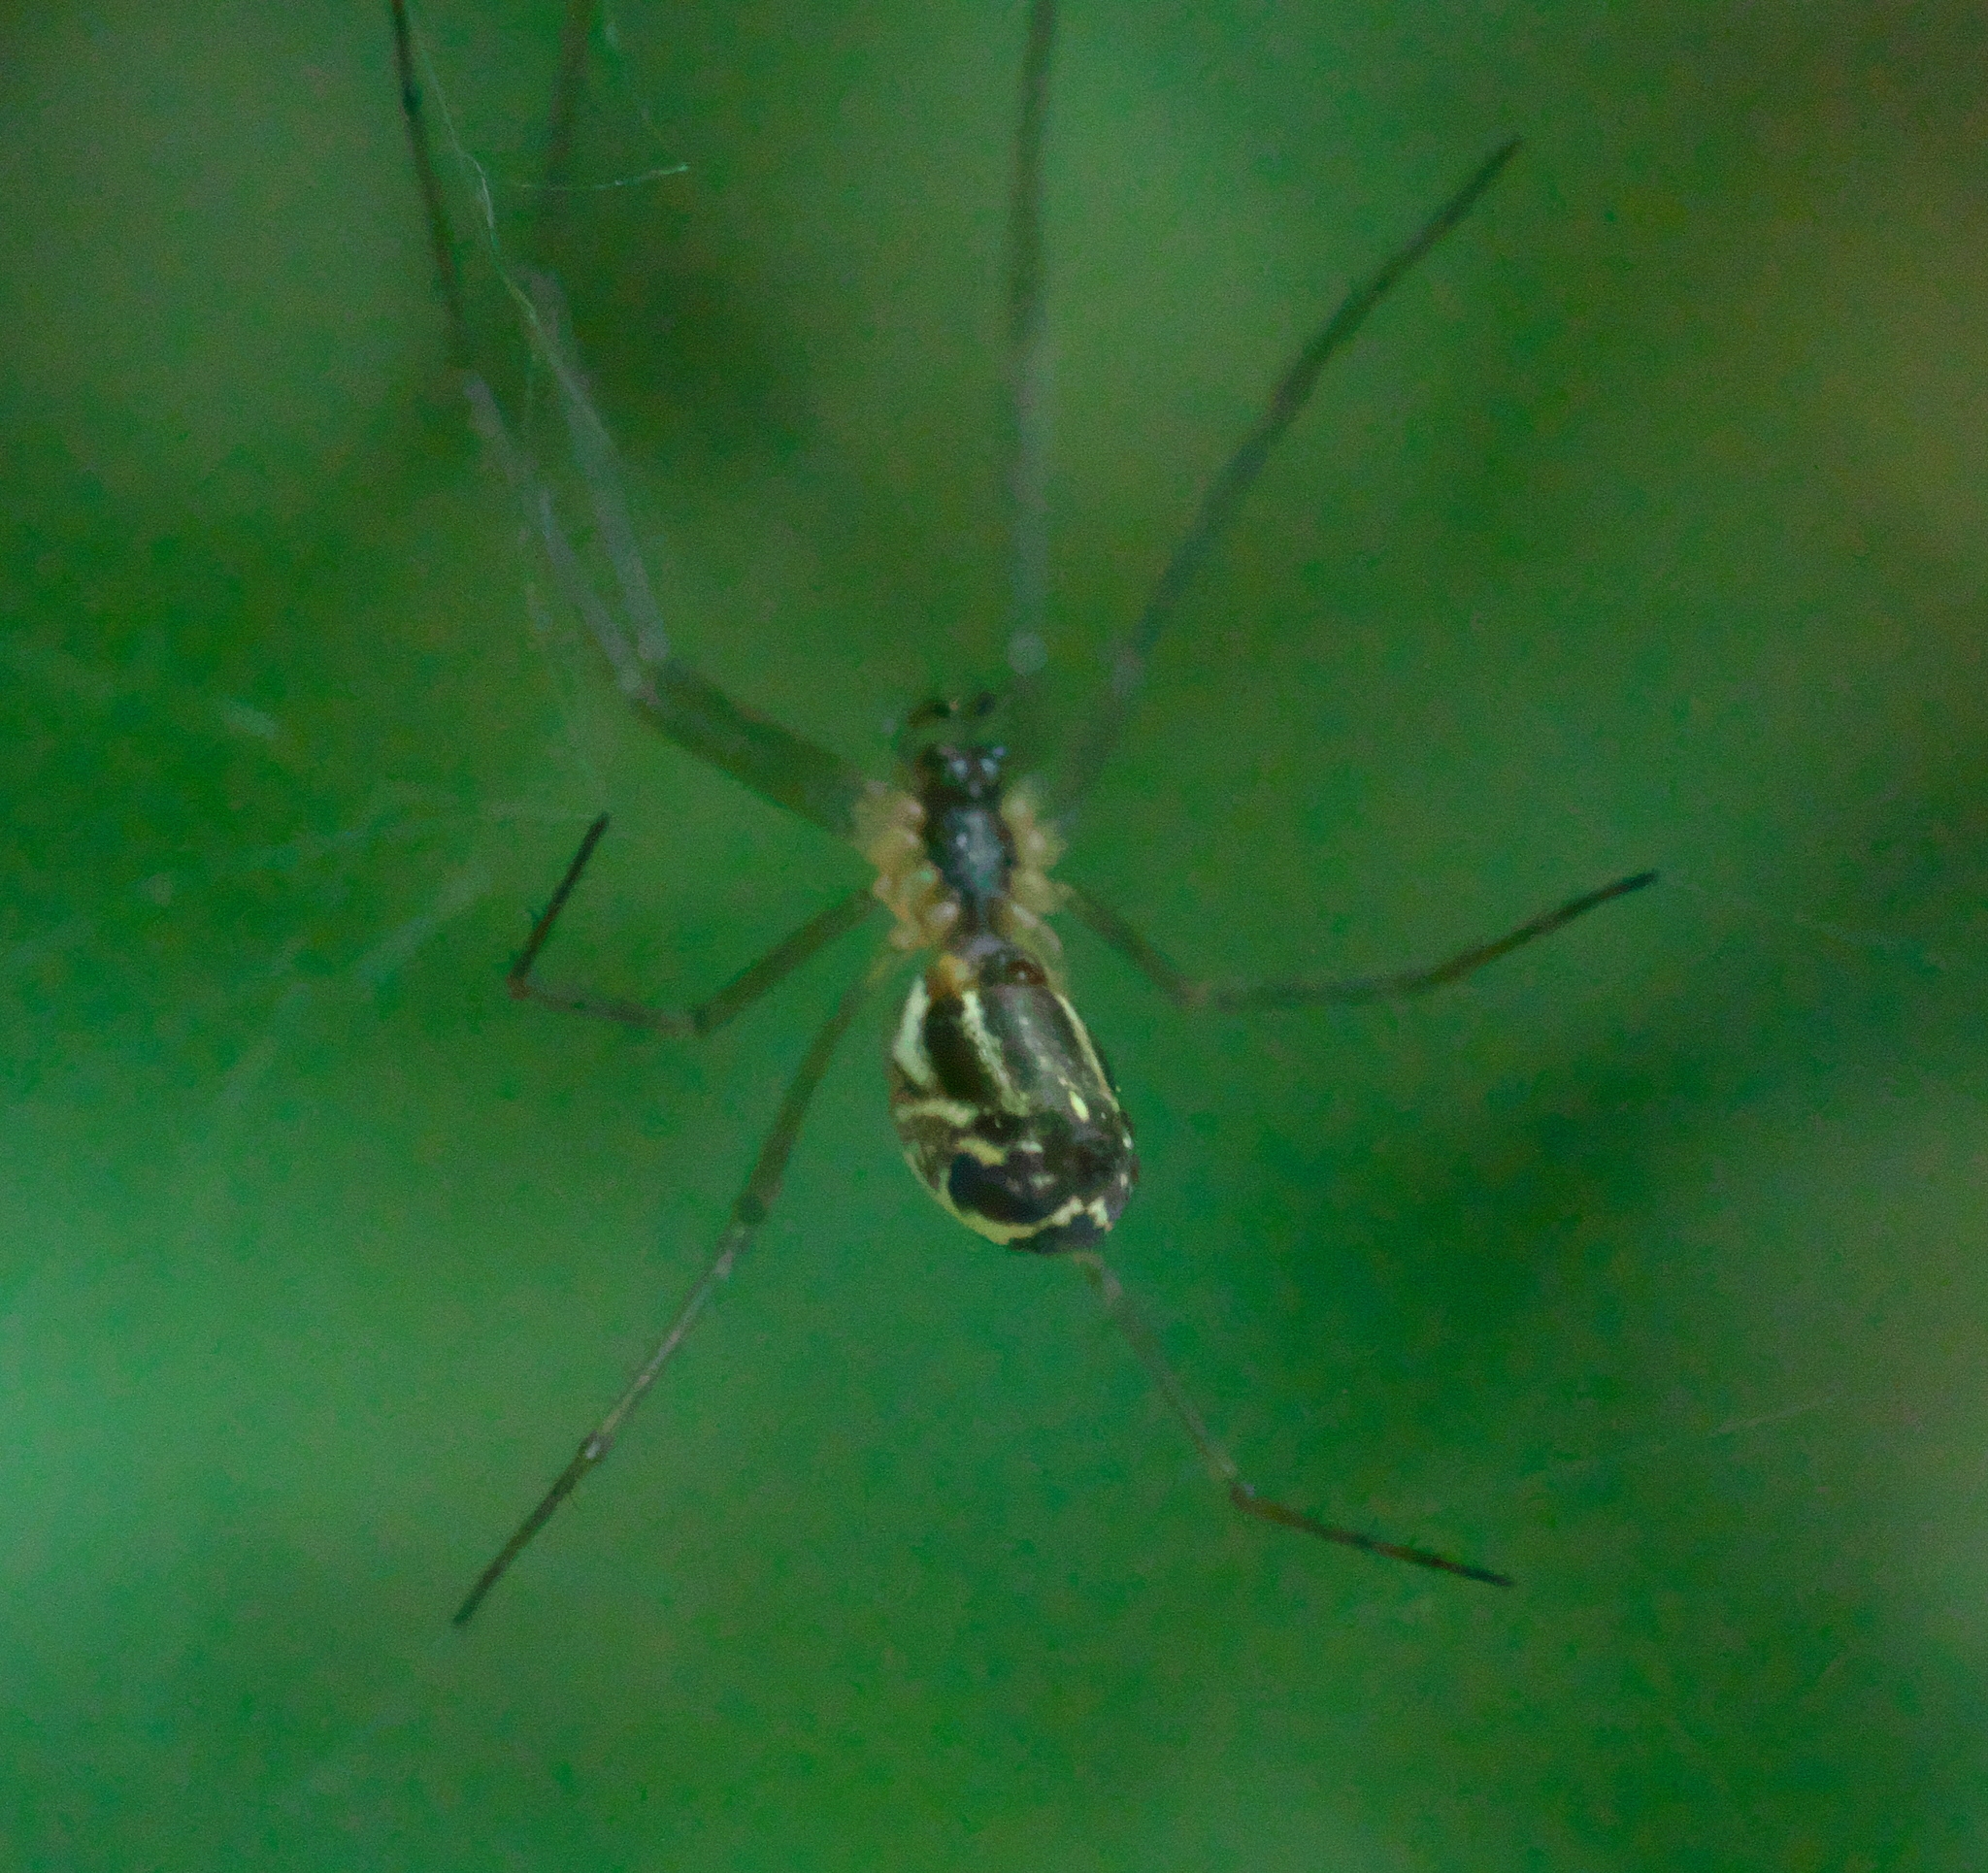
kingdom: Animalia
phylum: Arthropoda
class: Arachnida
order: Araneae
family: Linyphiidae
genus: Neriene
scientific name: Neriene litigiosa
